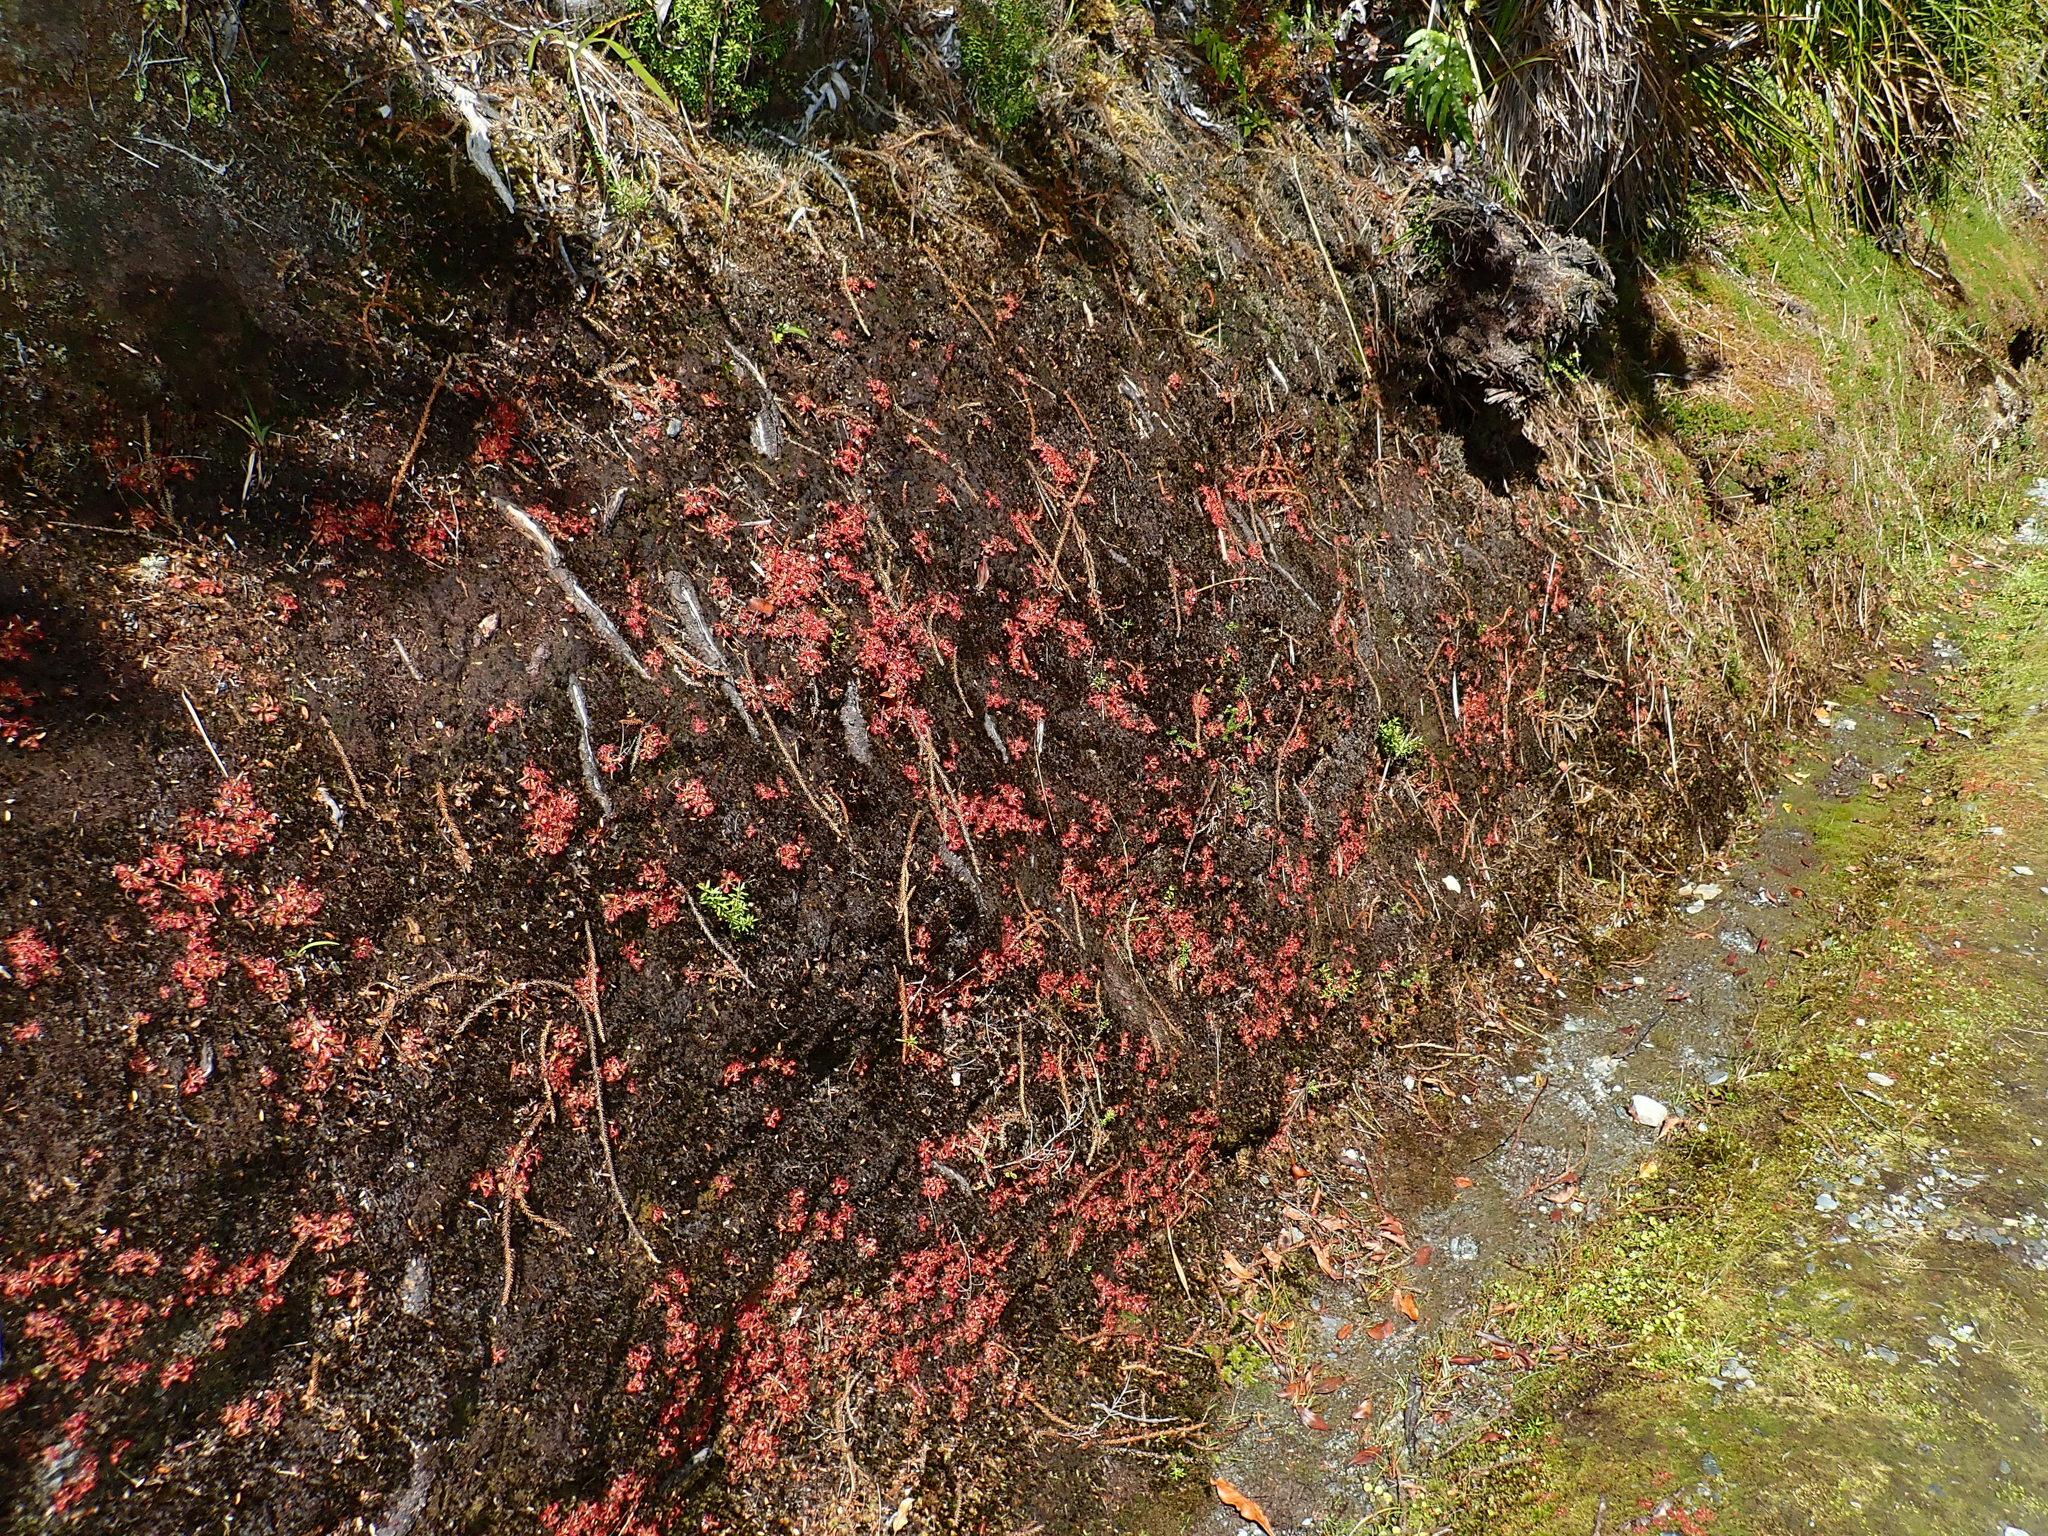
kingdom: Plantae
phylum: Tracheophyta
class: Magnoliopsida
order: Caryophyllales
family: Droseraceae
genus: Drosera
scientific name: Drosera spatulata
